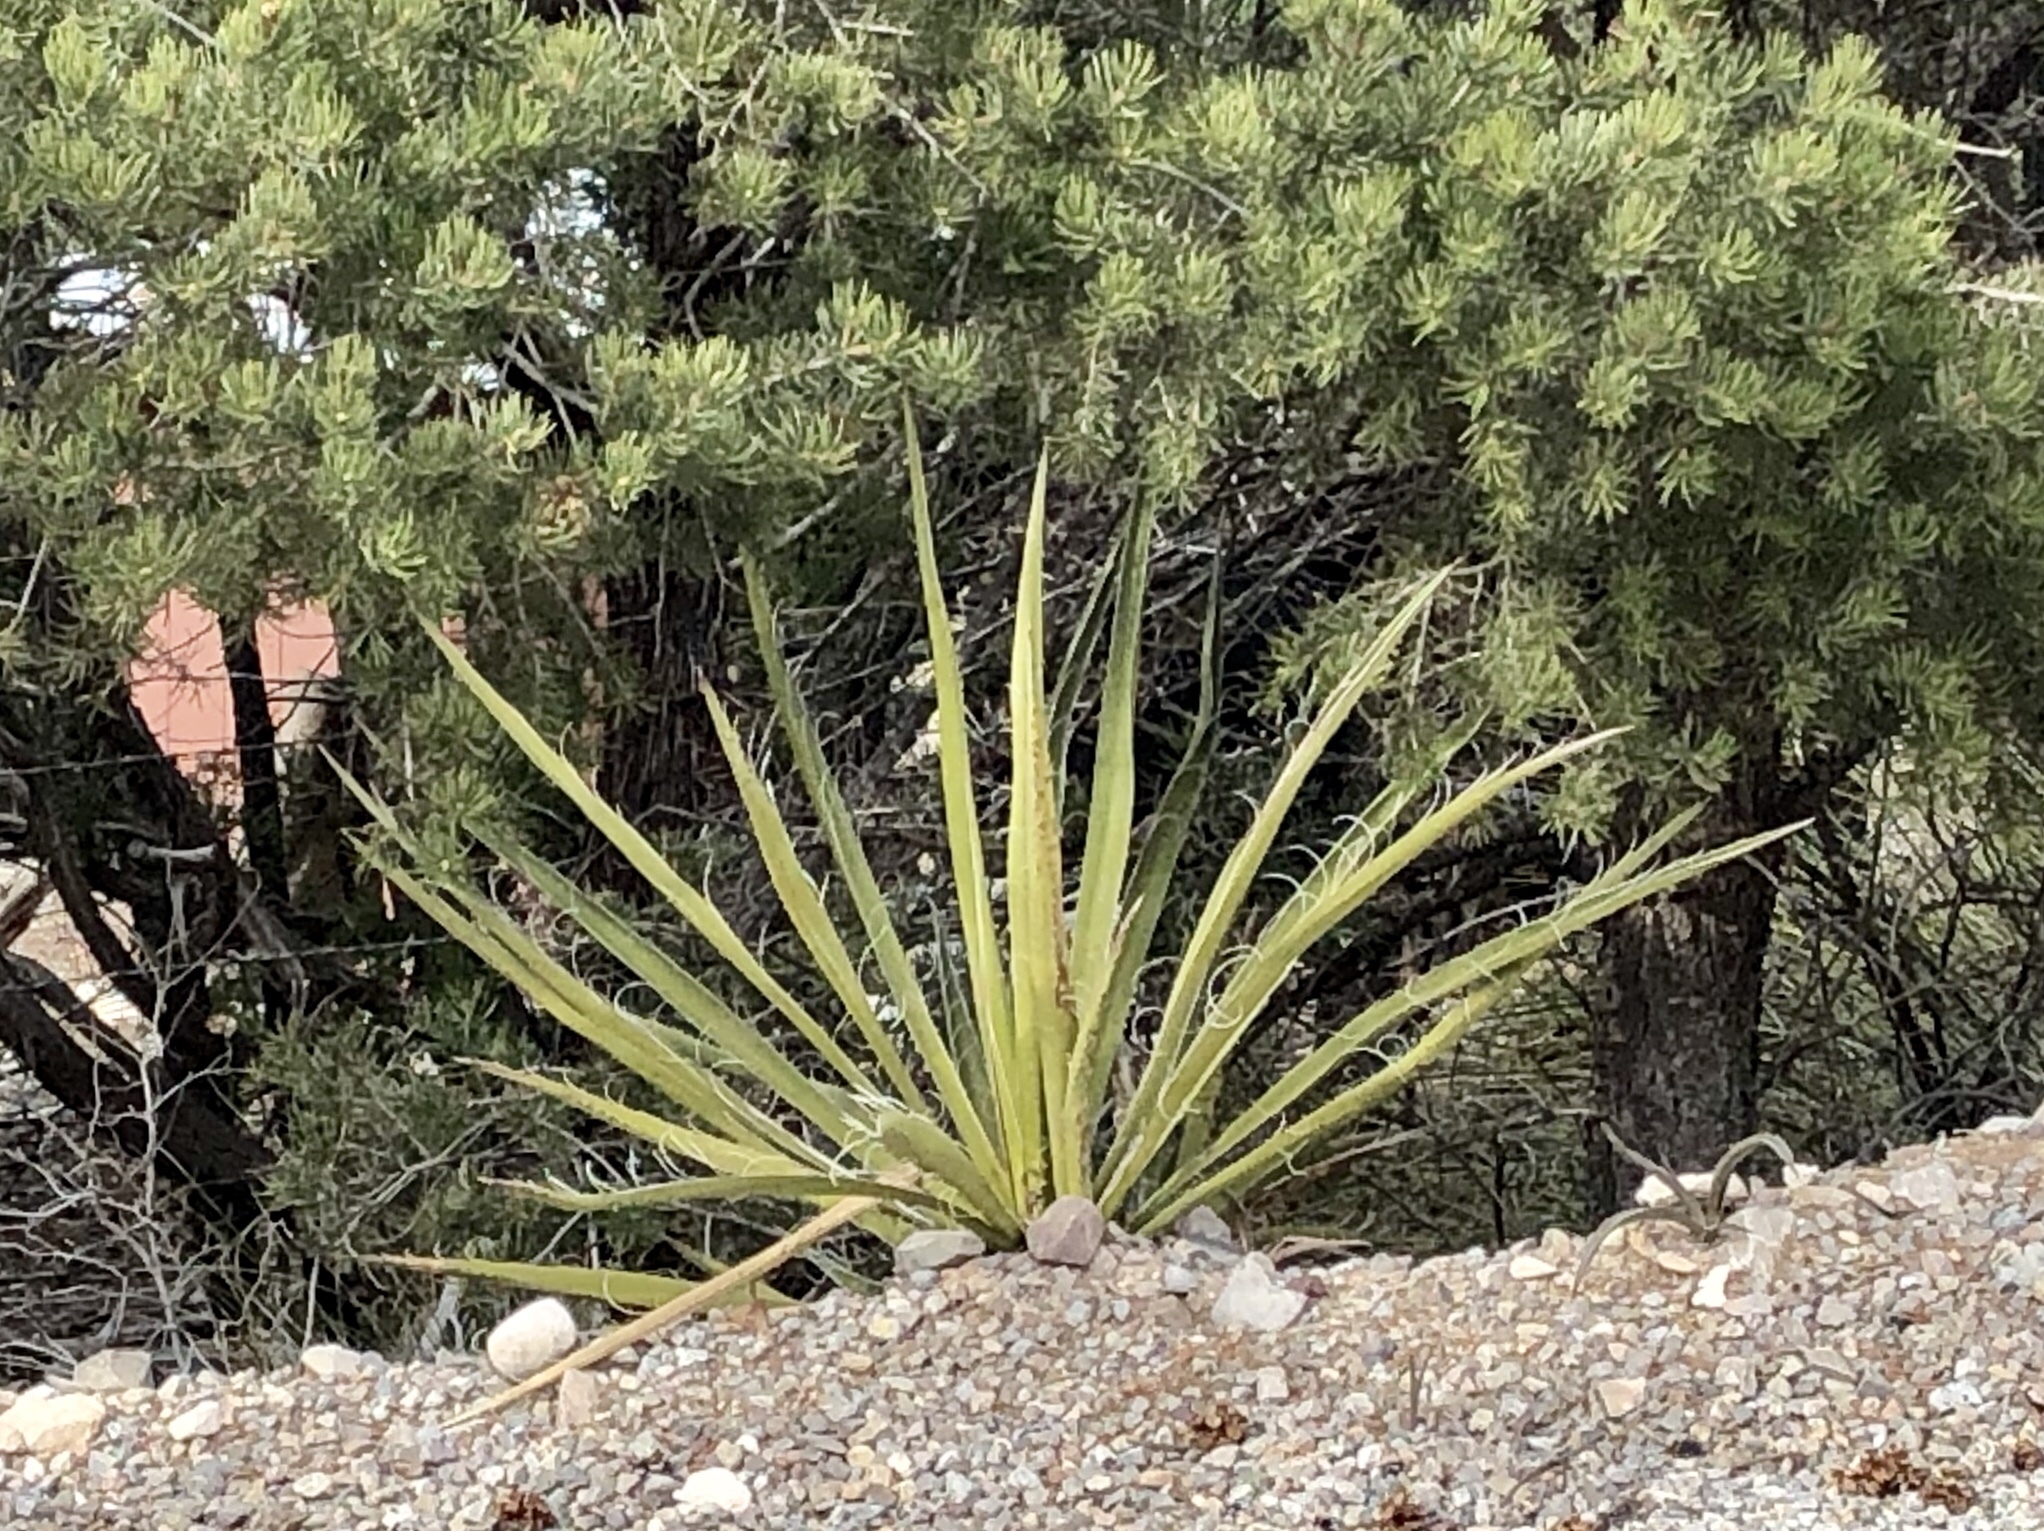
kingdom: Plantae
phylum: Tracheophyta
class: Liliopsida
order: Asparagales
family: Asparagaceae
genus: Yucca
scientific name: Yucca baccata
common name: Banana yucca
